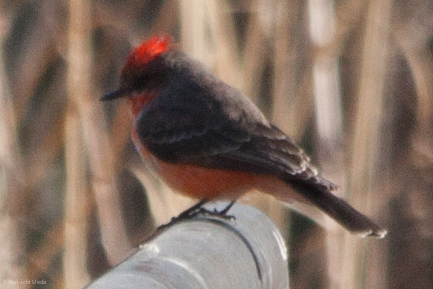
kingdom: Animalia
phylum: Chordata
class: Aves
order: Passeriformes
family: Tyrannidae
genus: Pyrocephalus
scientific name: Pyrocephalus rubinus
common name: Vermilion flycatcher
